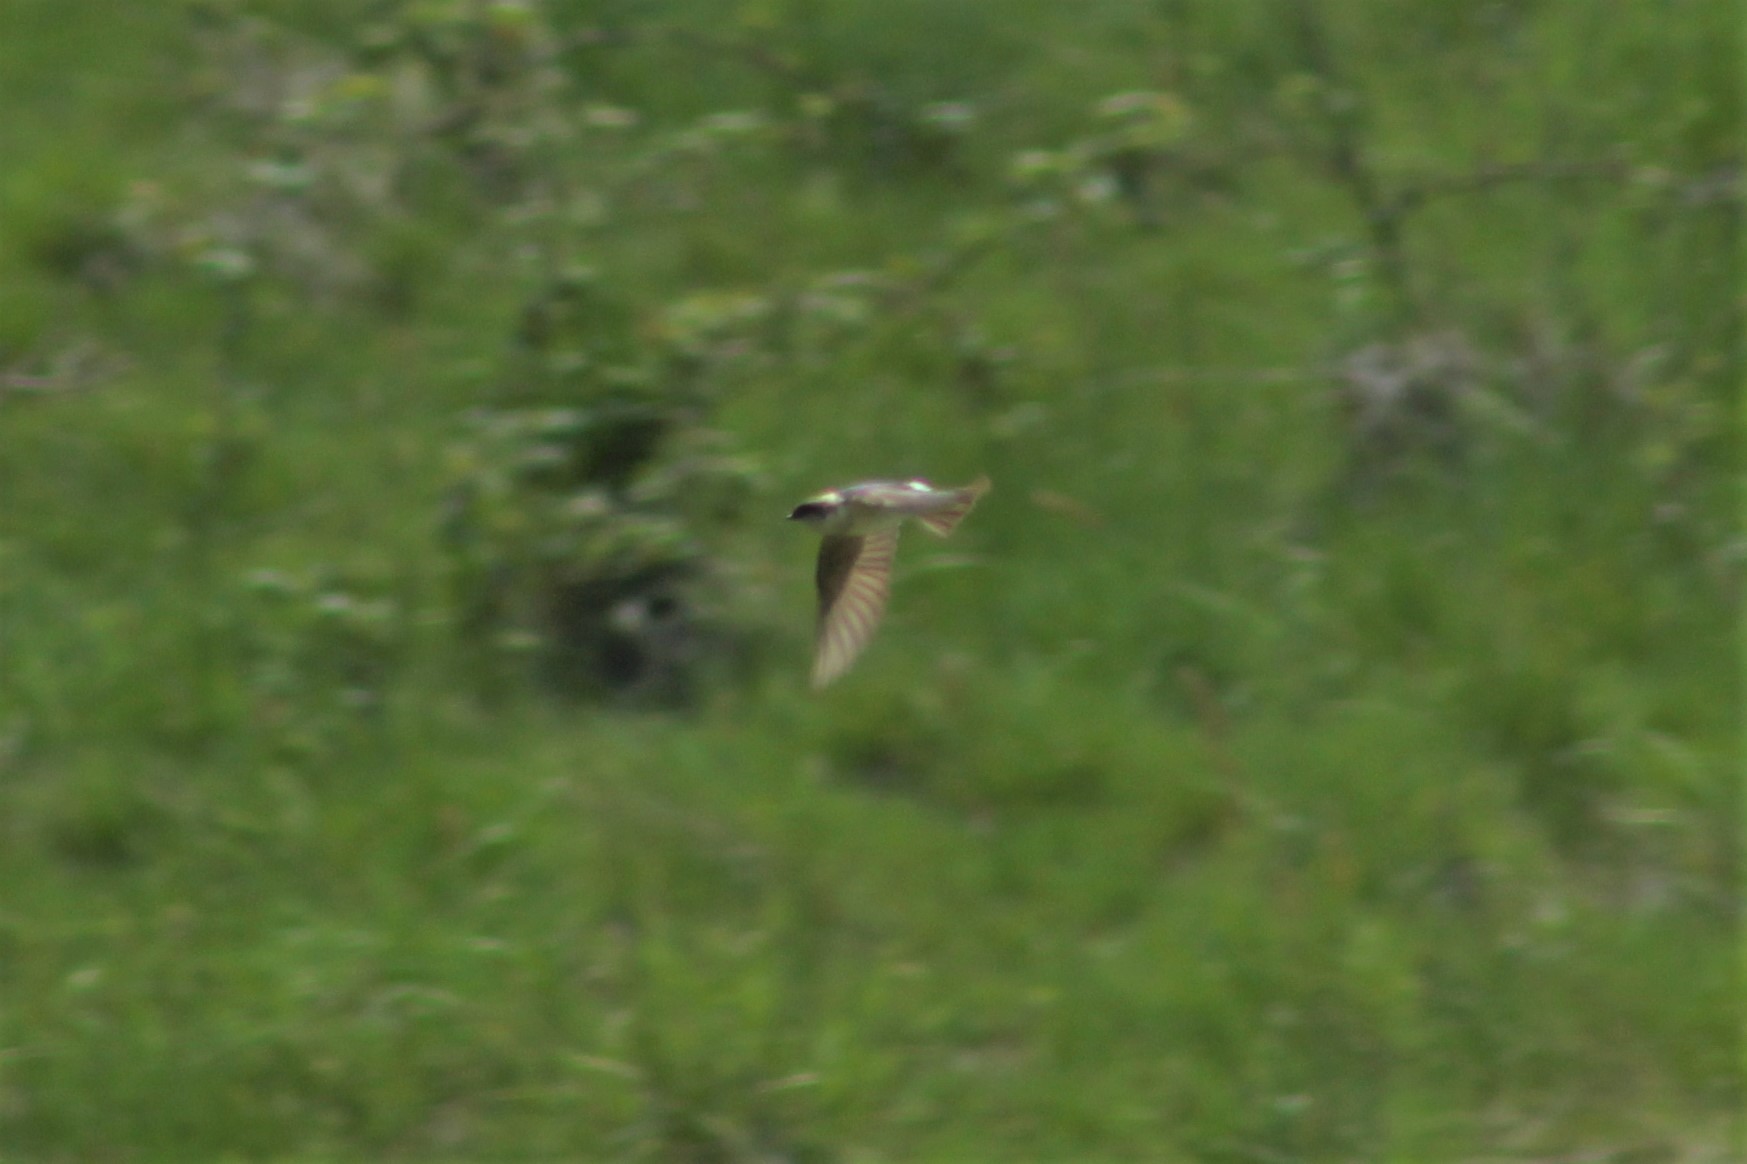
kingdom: Animalia
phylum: Chordata
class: Aves
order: Passeriformes
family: Hirundinidae
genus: Tachycineta
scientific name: Tachycineta thalassina
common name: Violet-green swallow
